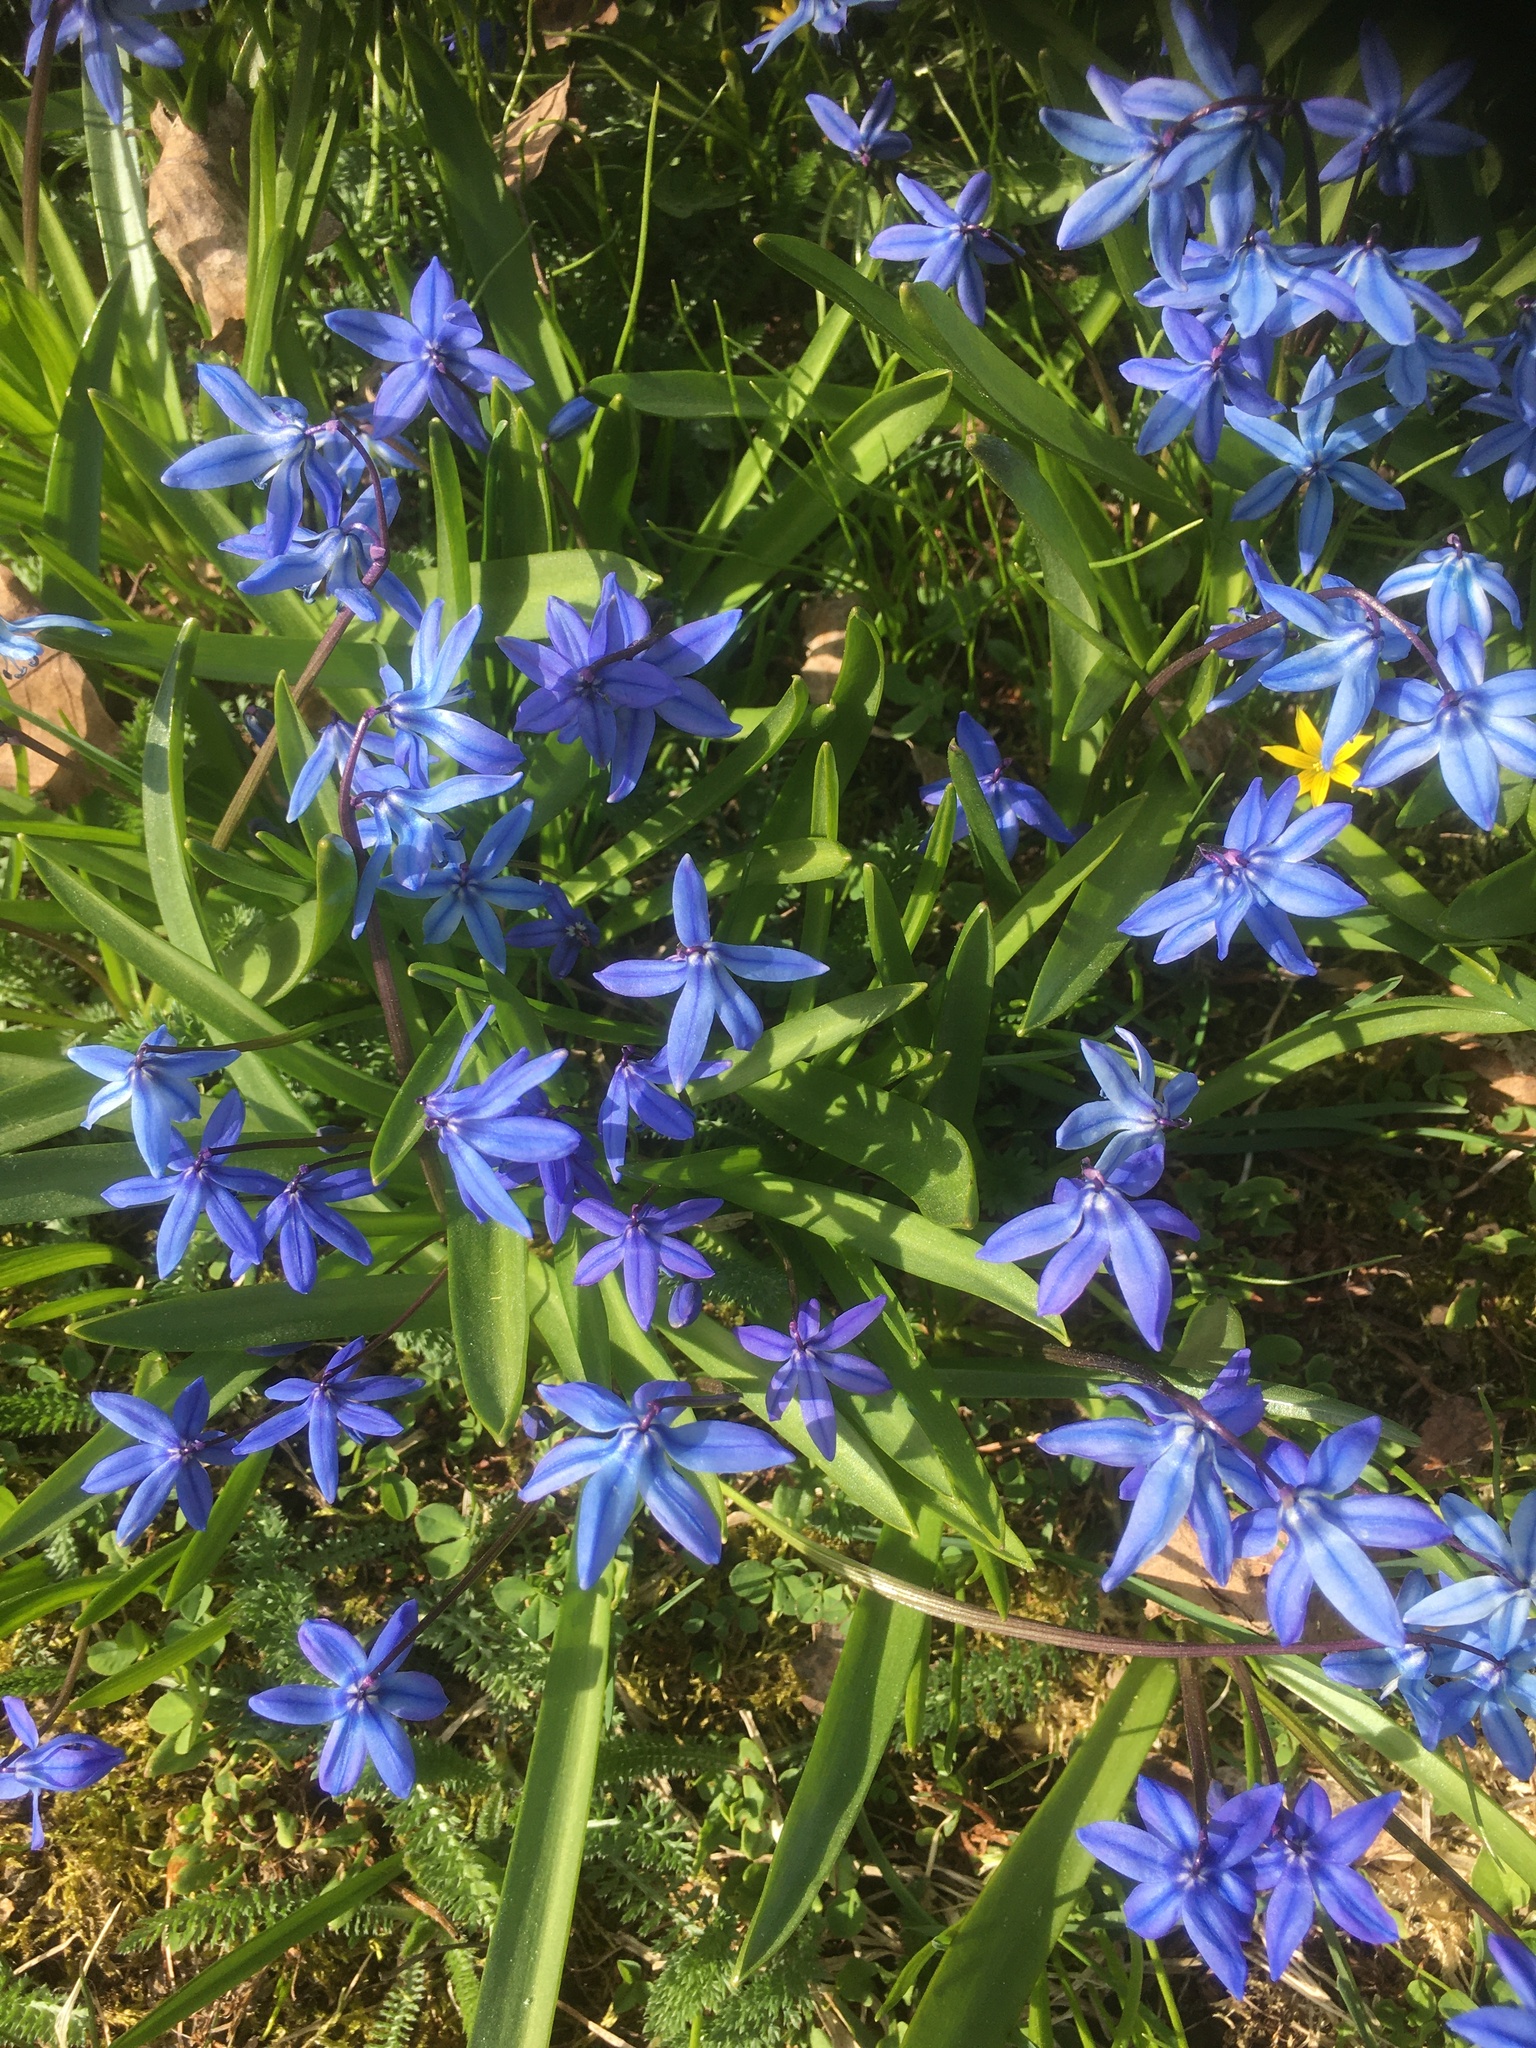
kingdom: Plantae
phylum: Tracheophyta
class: Liliopsida
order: Asparagales
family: Asparagaceae
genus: Scilla
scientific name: Scilla siberica
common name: Siberian squill
